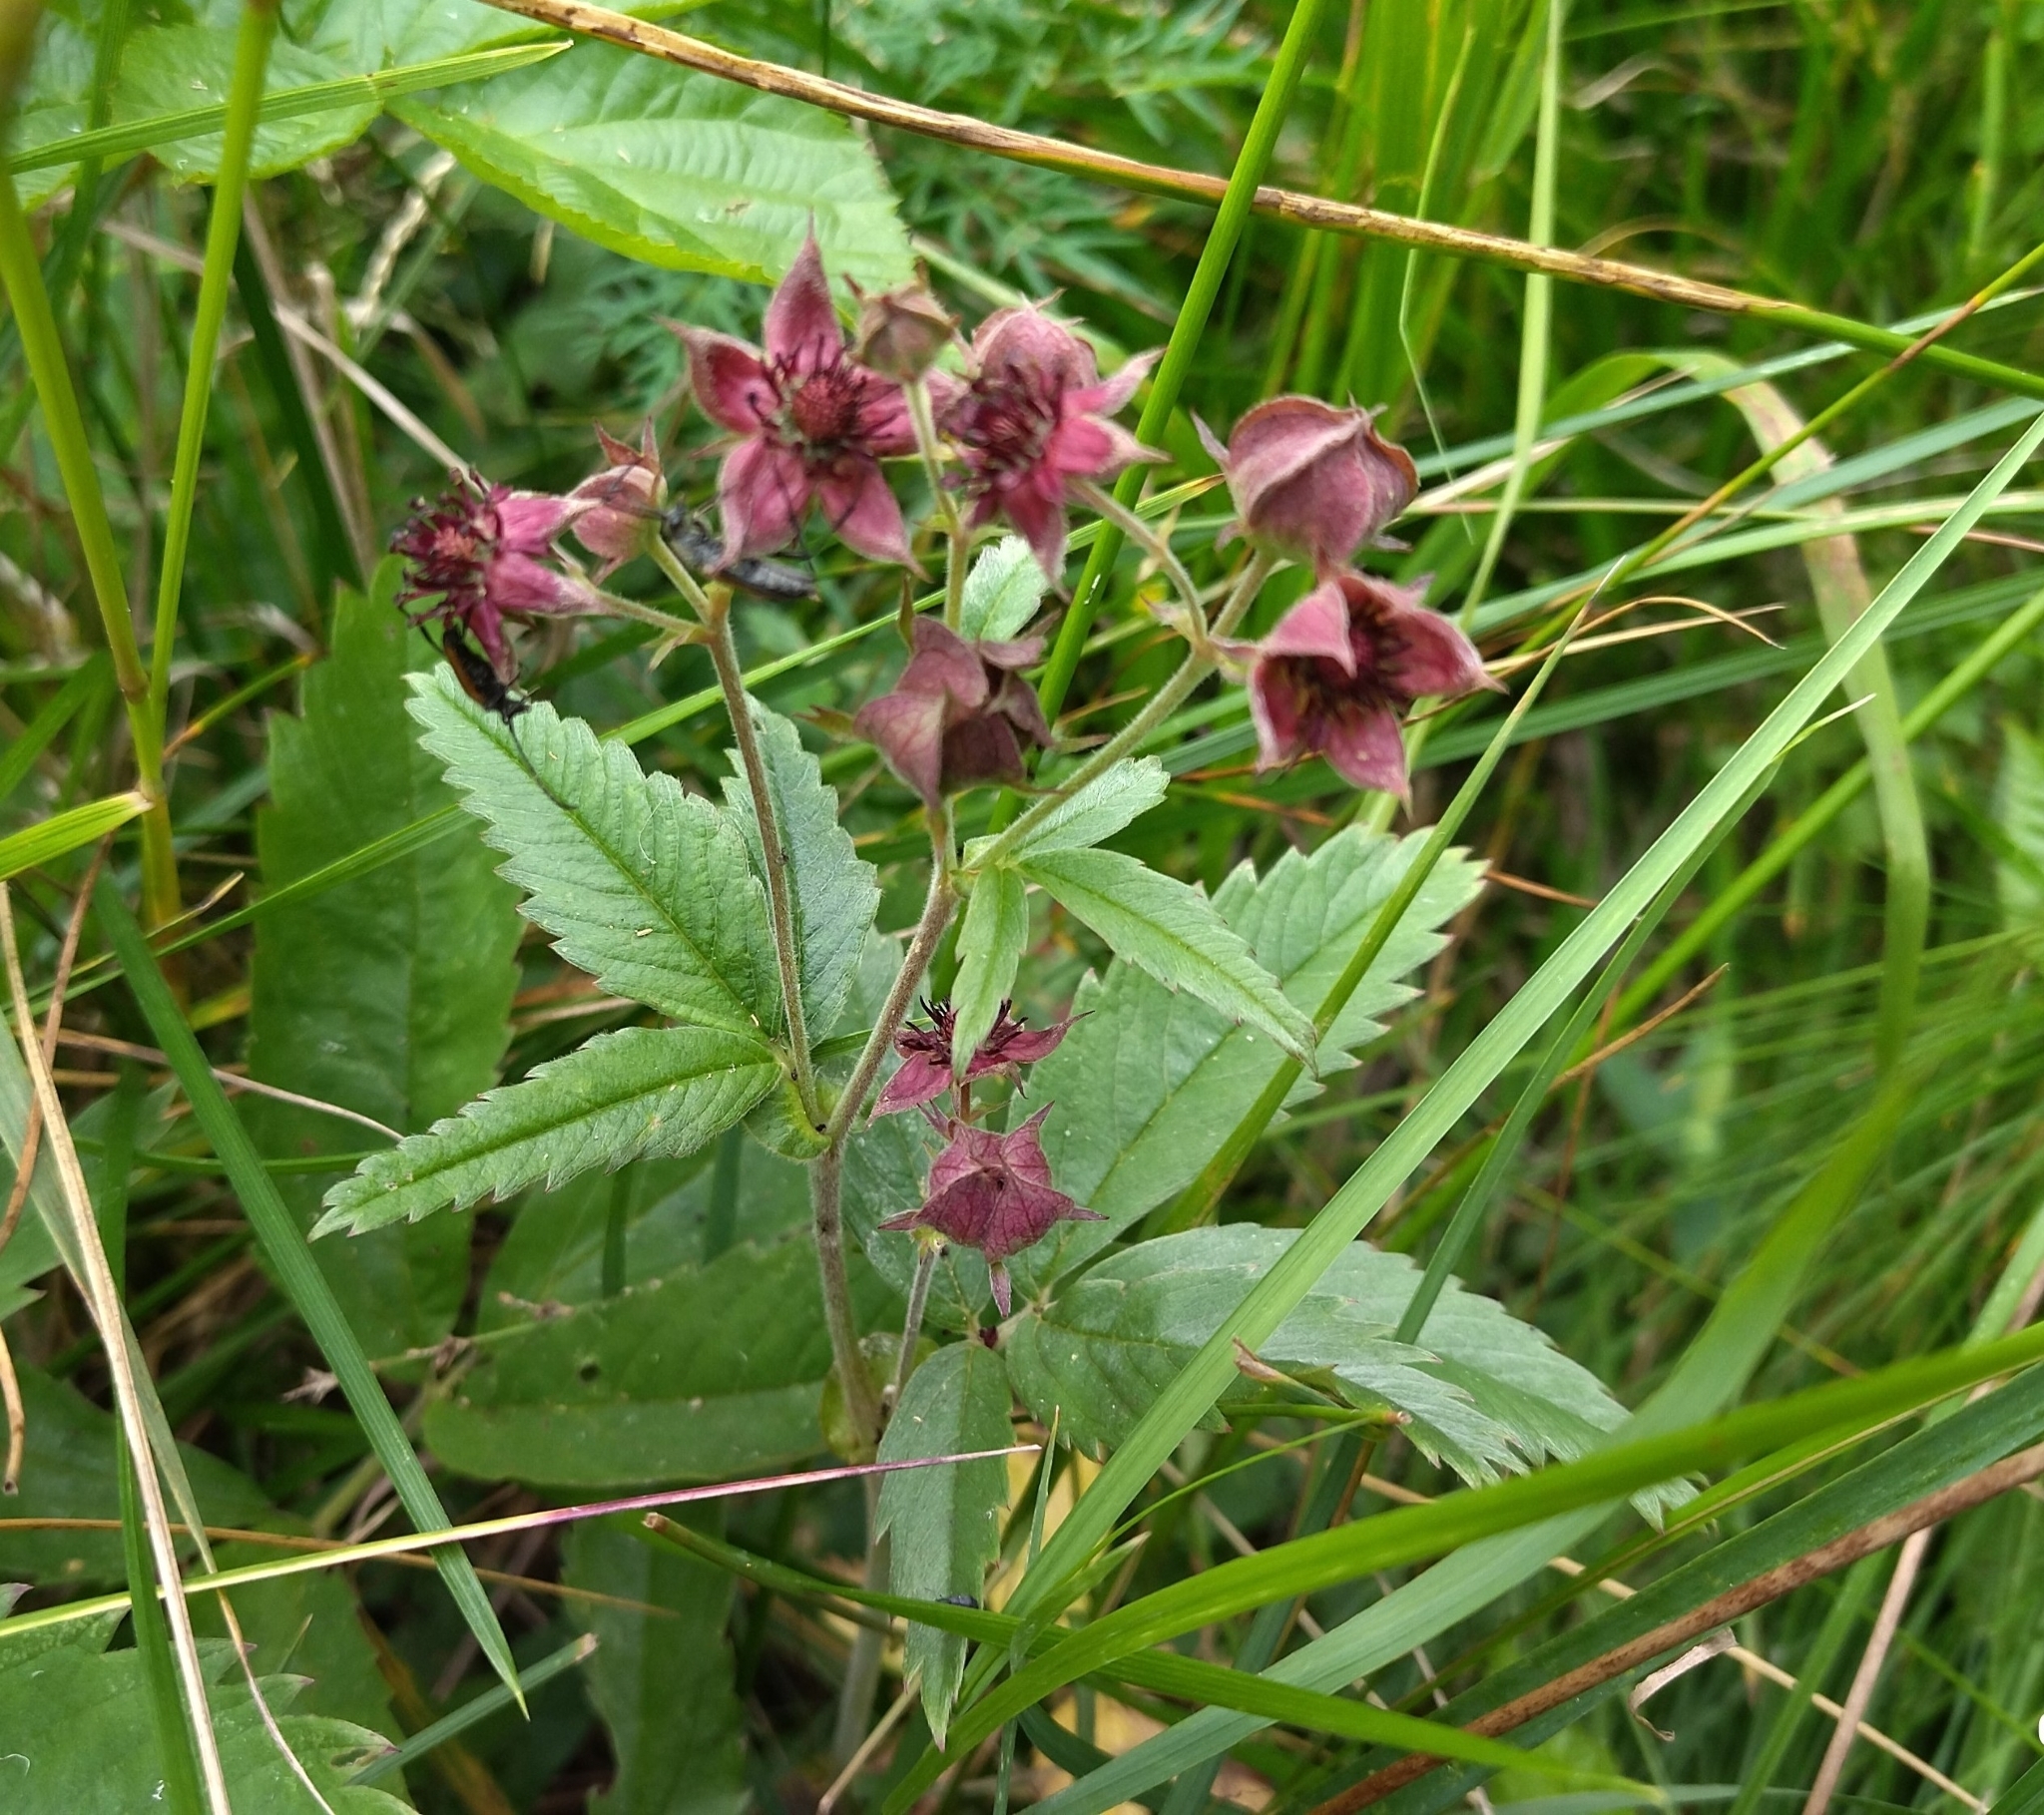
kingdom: Plantae
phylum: Tracheophyta
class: Magnoliopsida
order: Rosales
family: Rosaceae
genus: Comarum
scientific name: Comarum palustre
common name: Marsh cinquefoil
